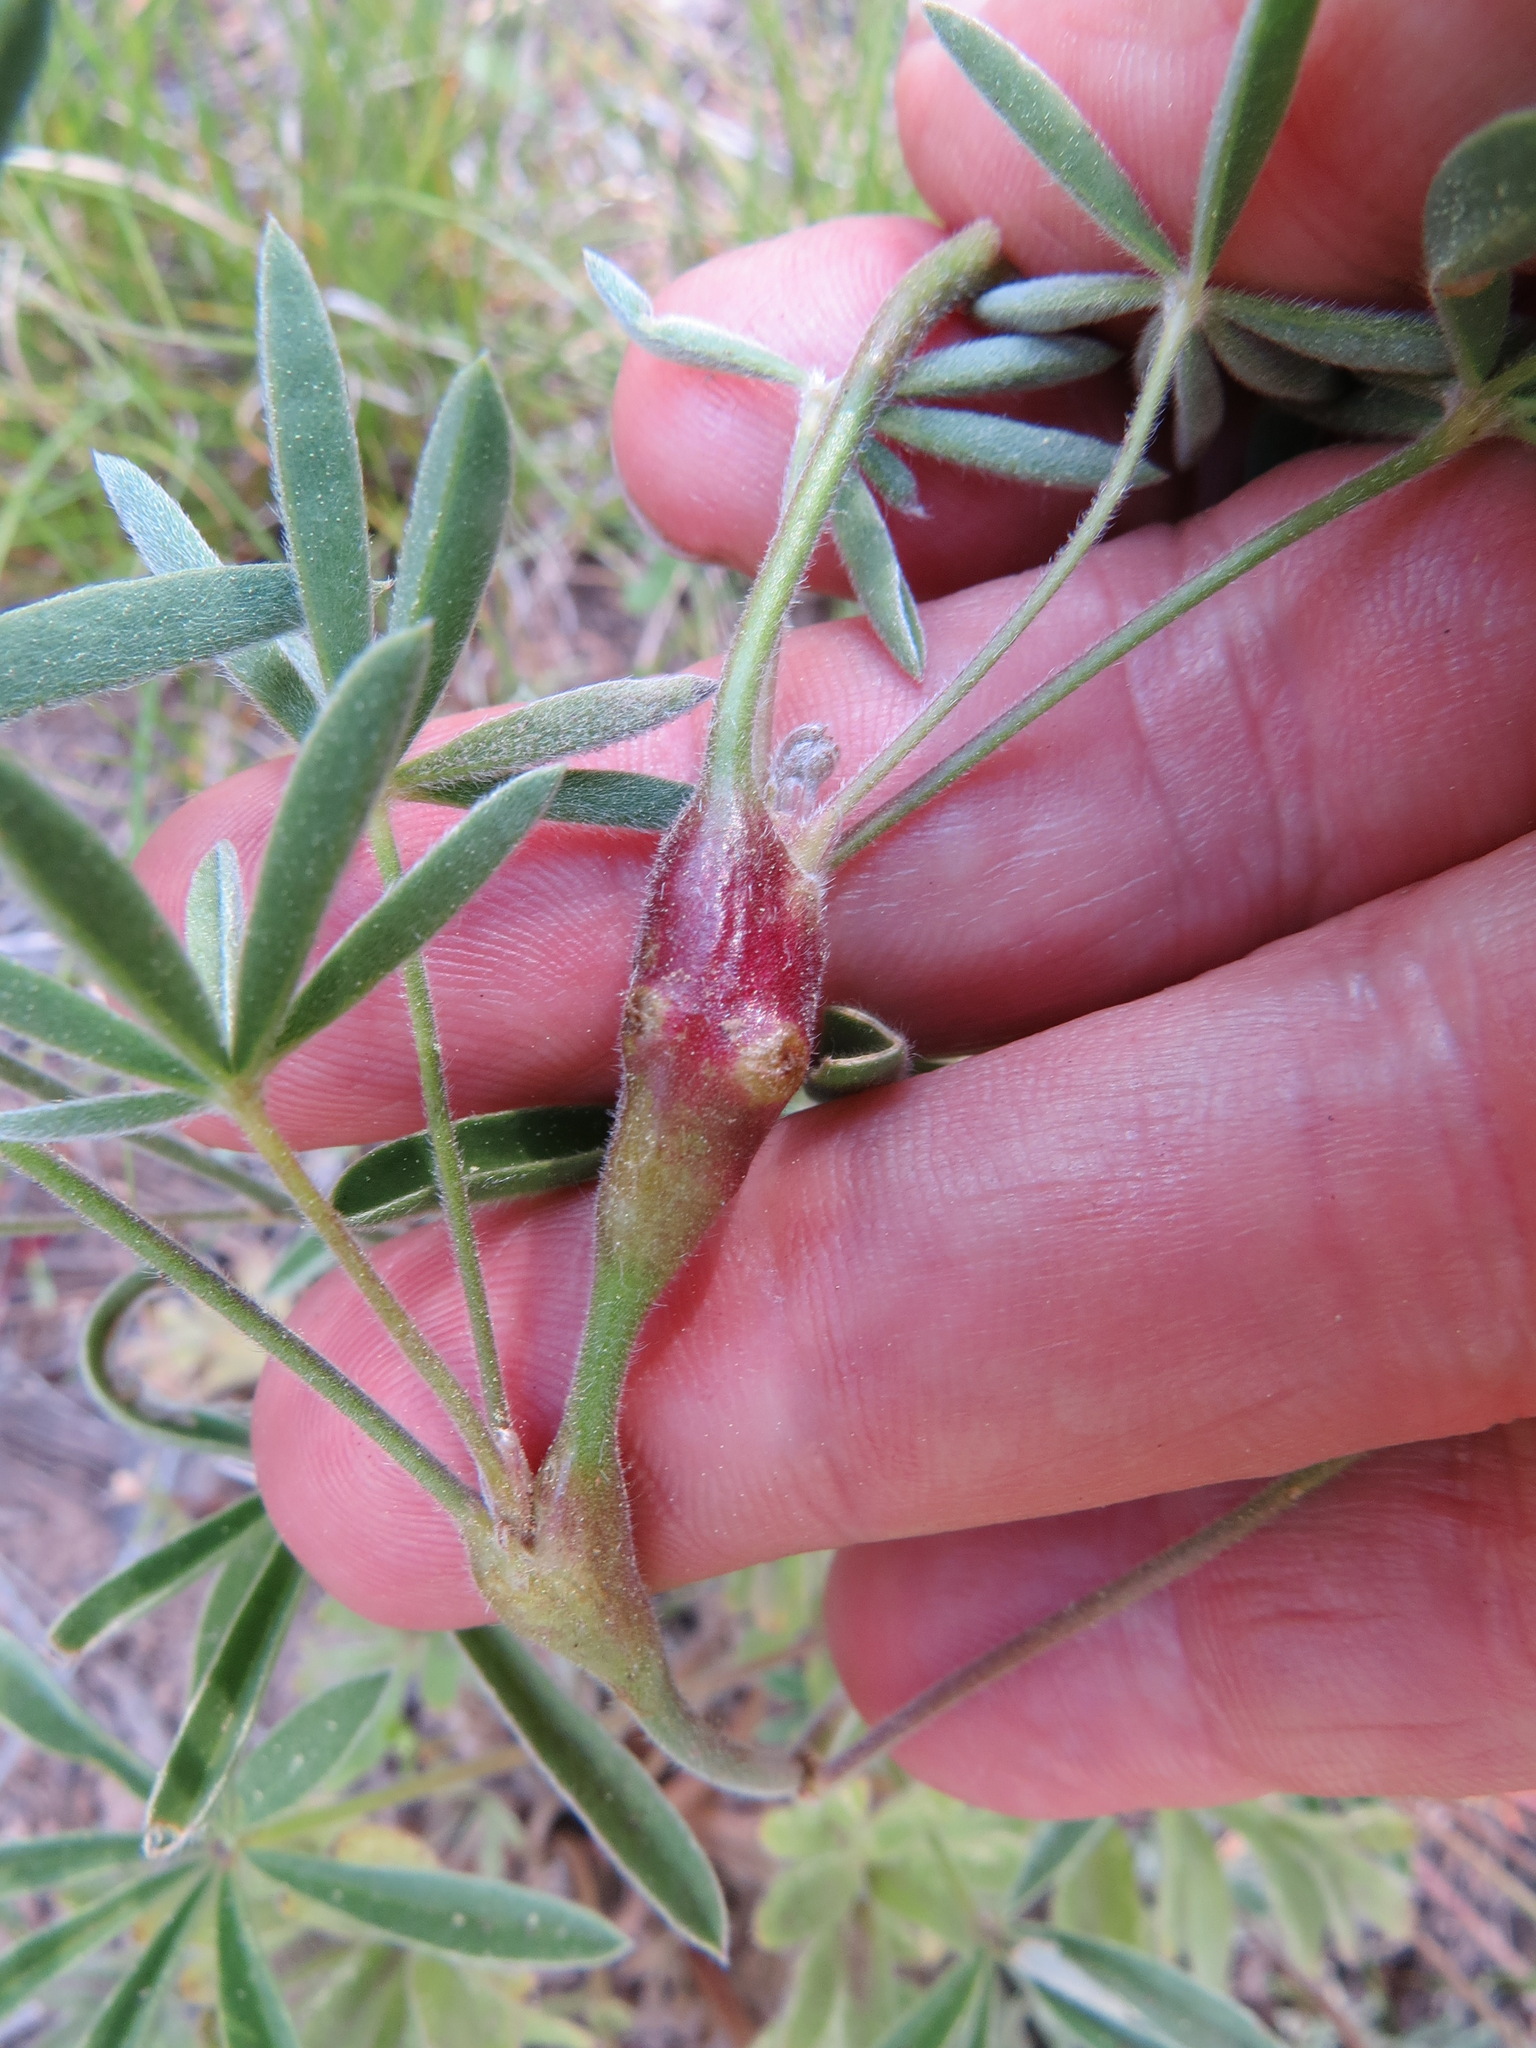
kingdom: Animalia
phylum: Arthropoda
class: Insecta
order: Diptera
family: Cecidomyiidae
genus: Neolasioptera
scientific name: Neolasioptera lupini
